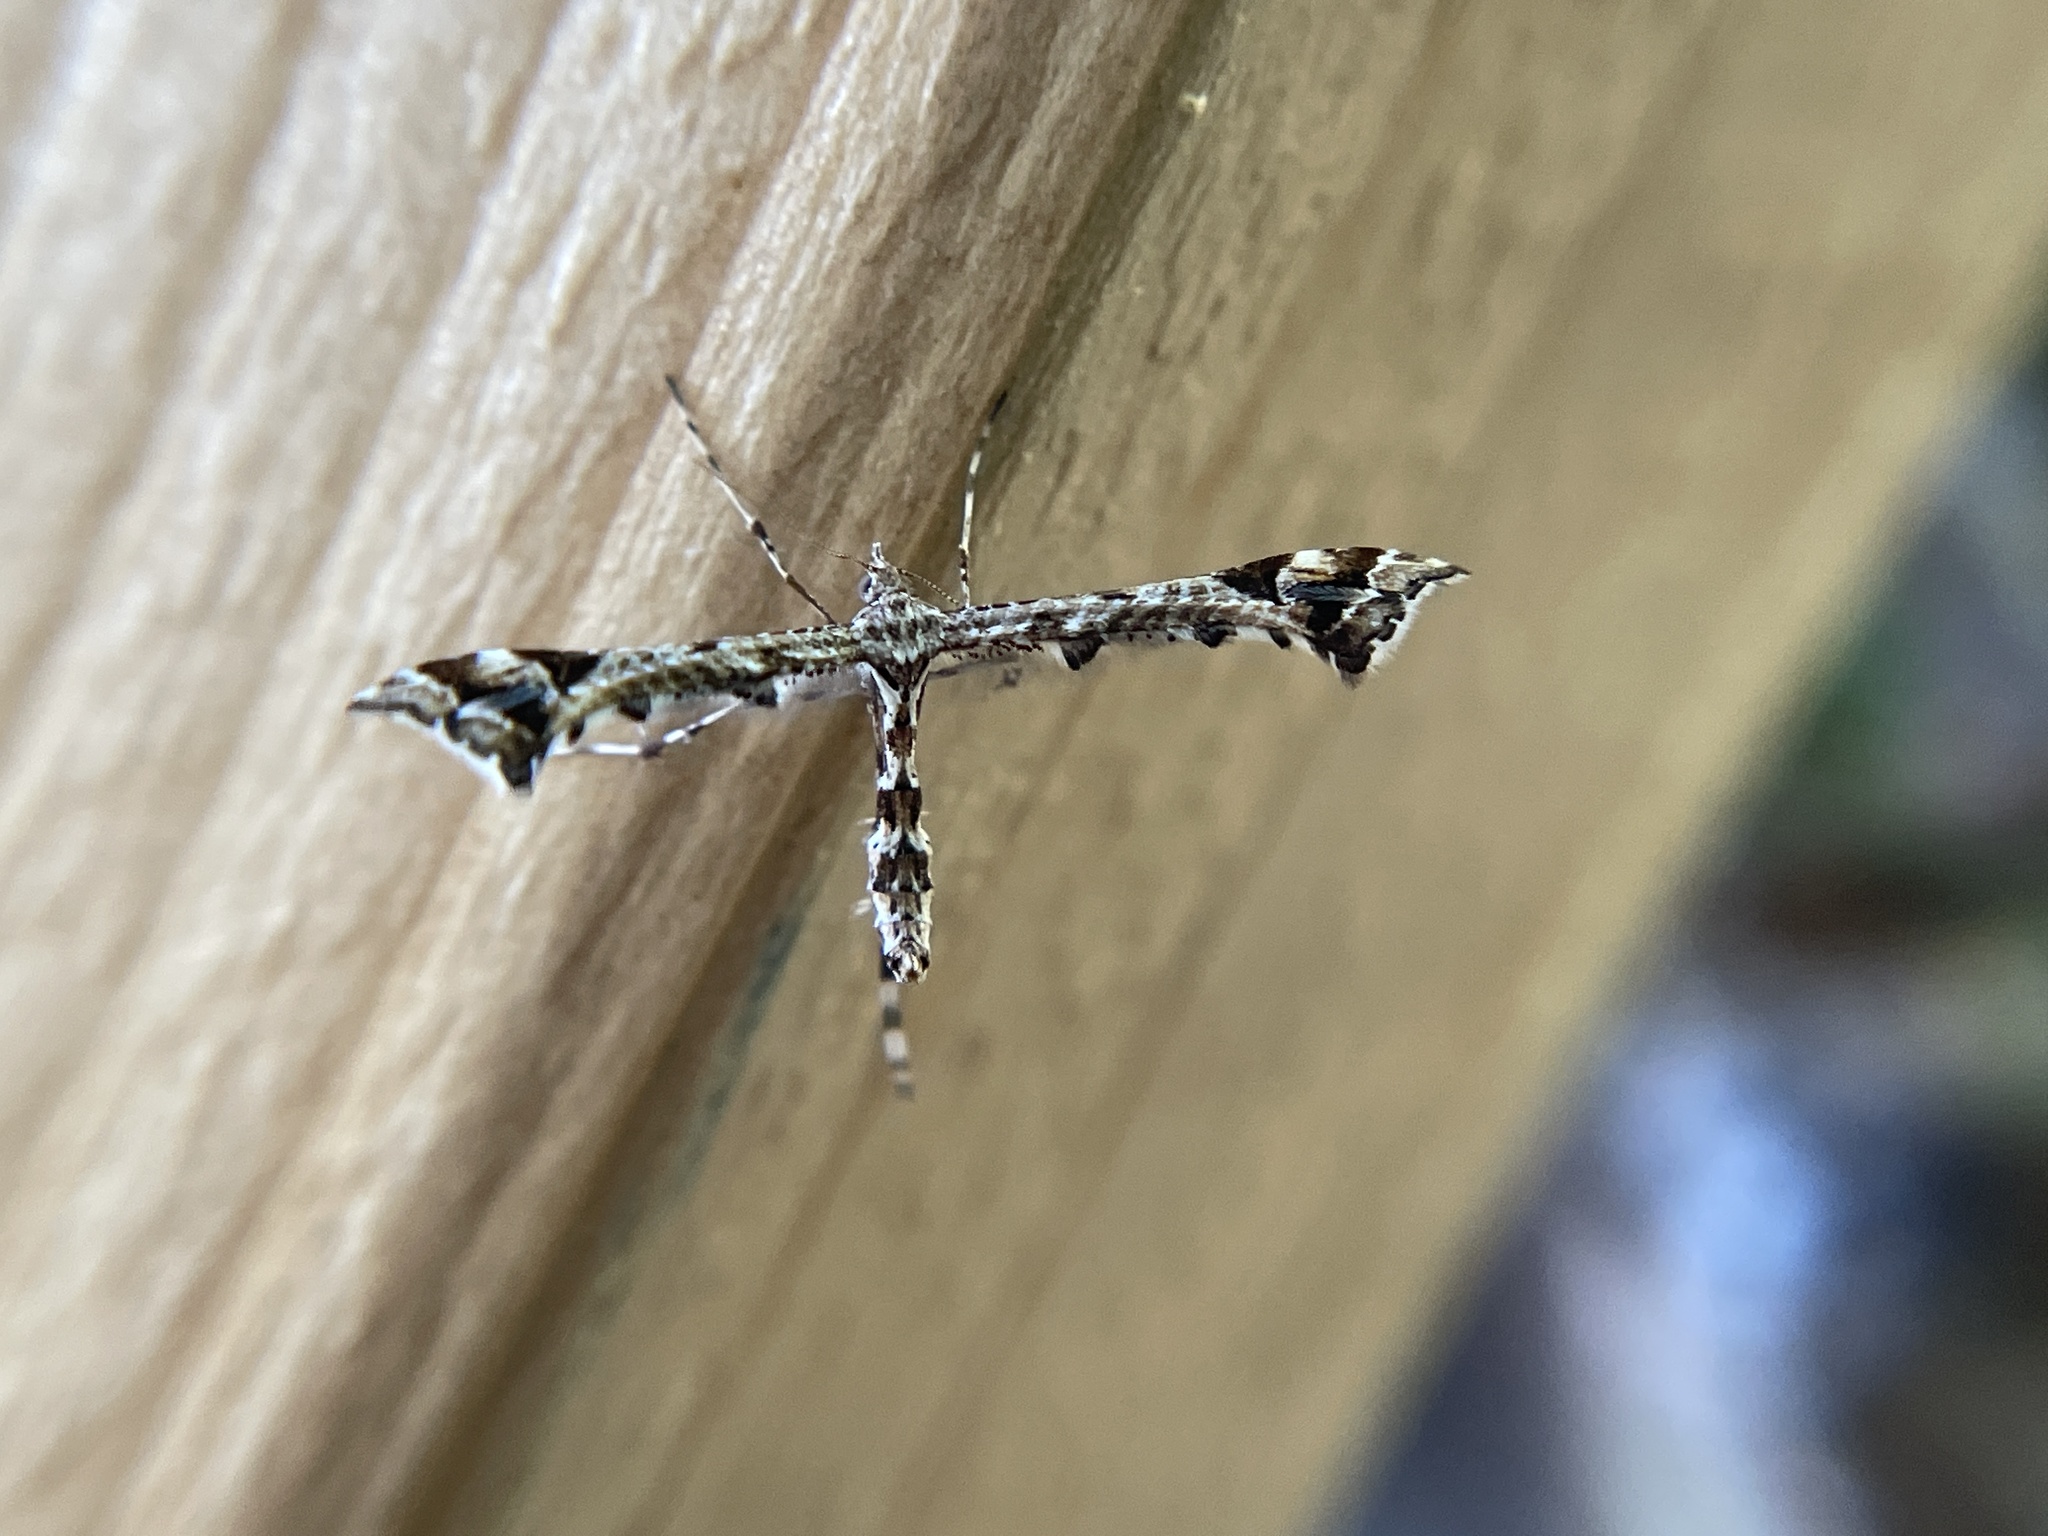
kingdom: Animalia
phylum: Arthropoda
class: Insecta
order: Lepidoptera
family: Pterophoridae
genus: Amblyptilia
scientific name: Amblyptilia pica
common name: Geranium plume moth
